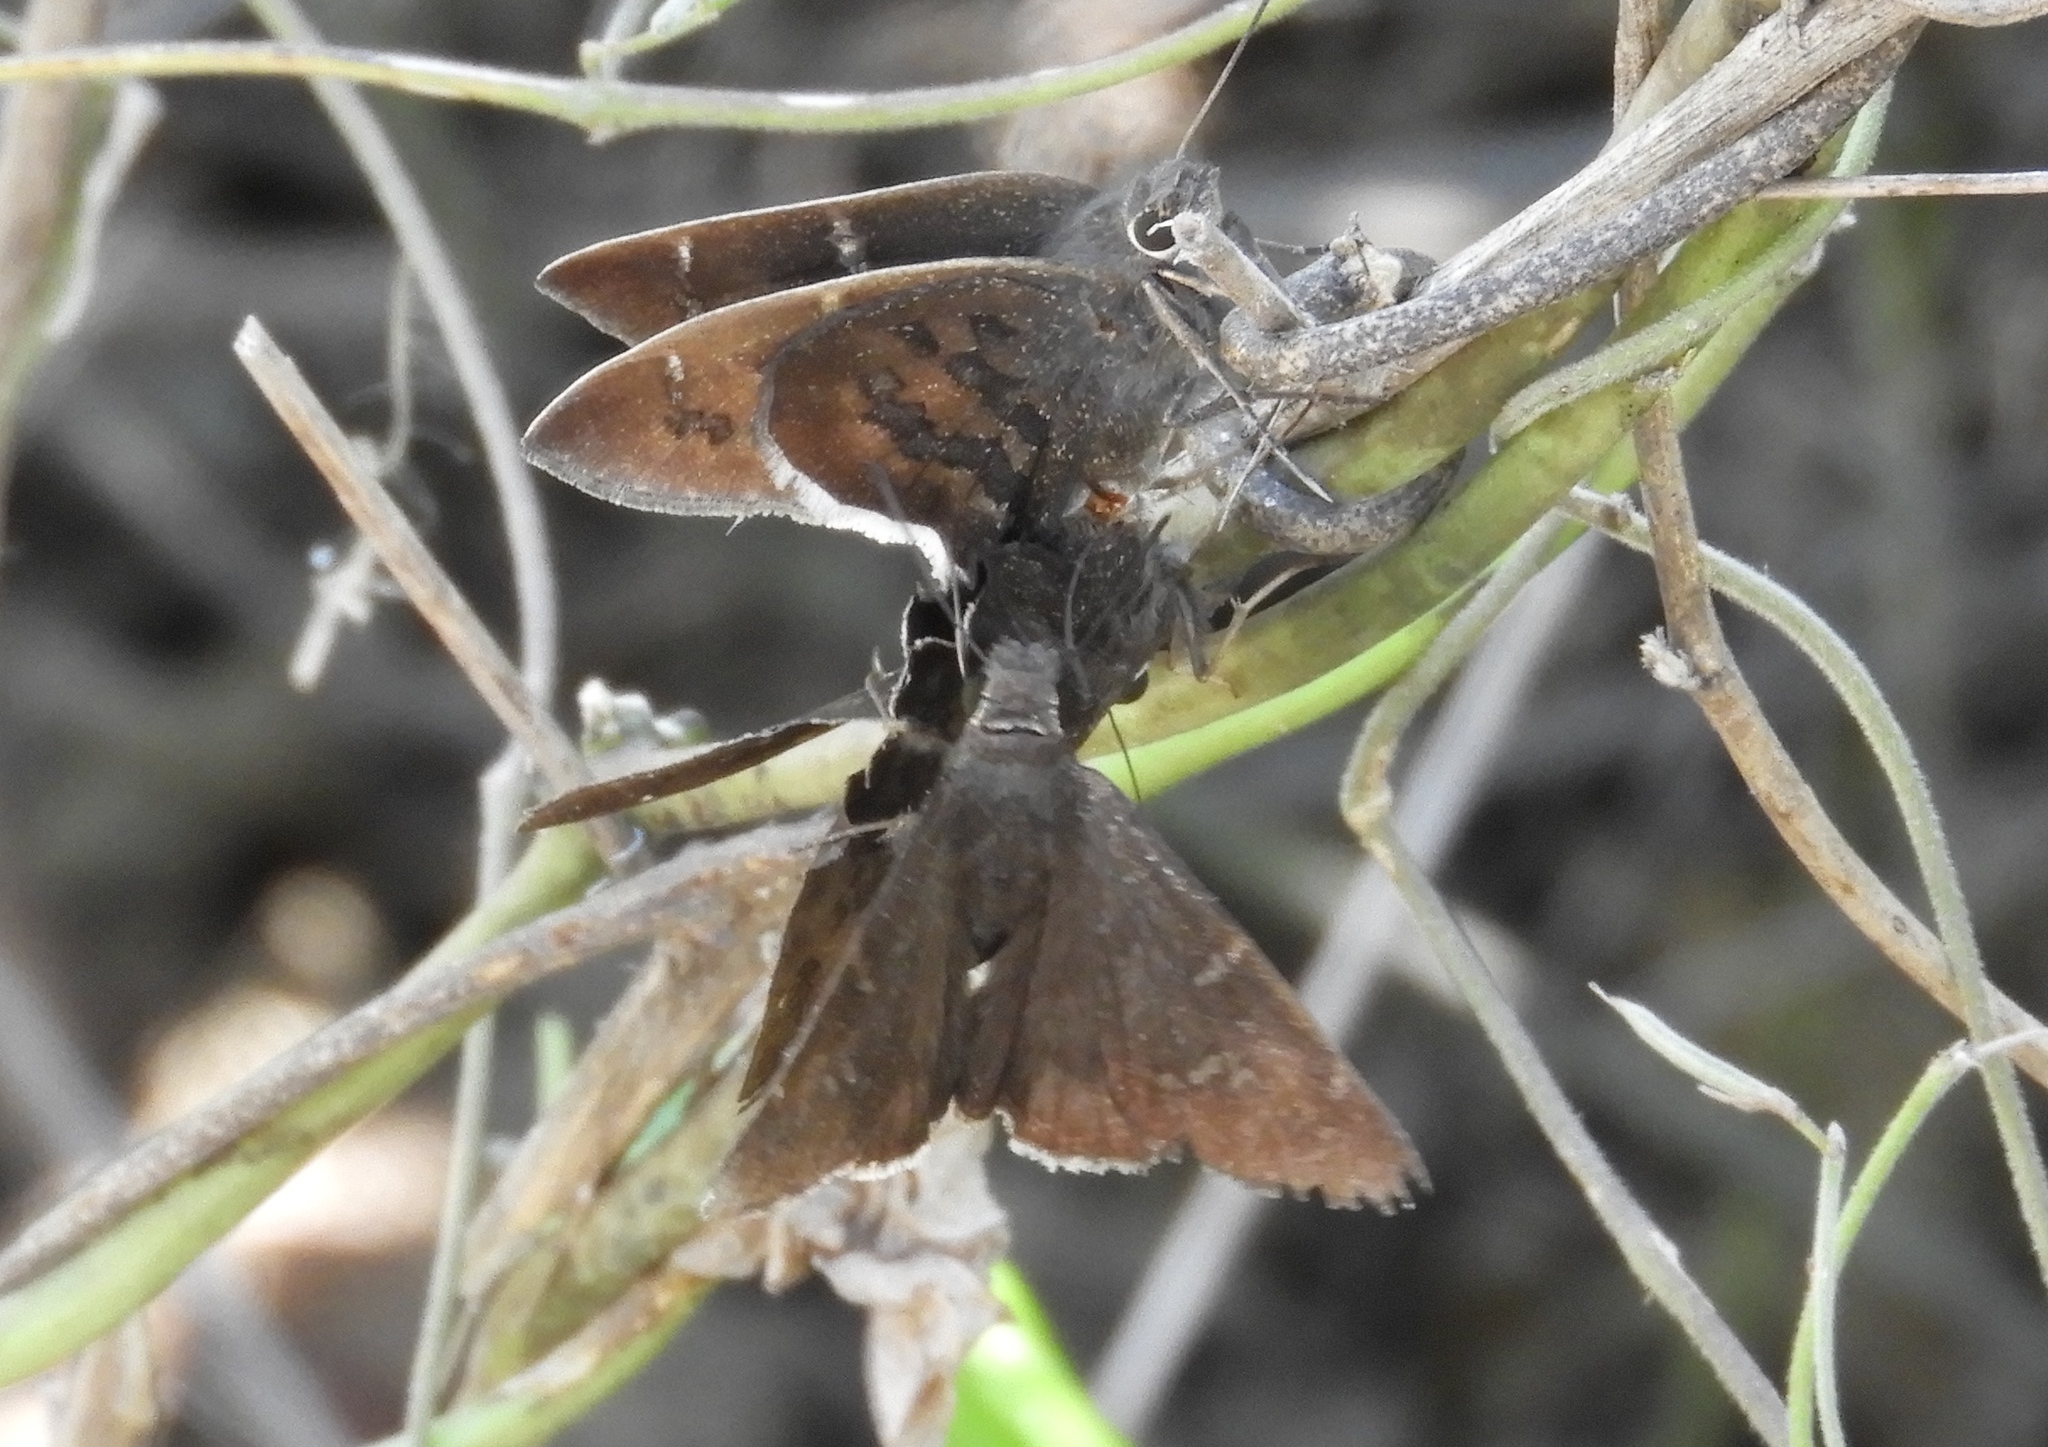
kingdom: Animalia
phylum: Arthropoda
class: Insecta
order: Lepidoptera
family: Hesperiidae
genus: Achalarus
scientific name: Achalarus Murgaria albociliatus
